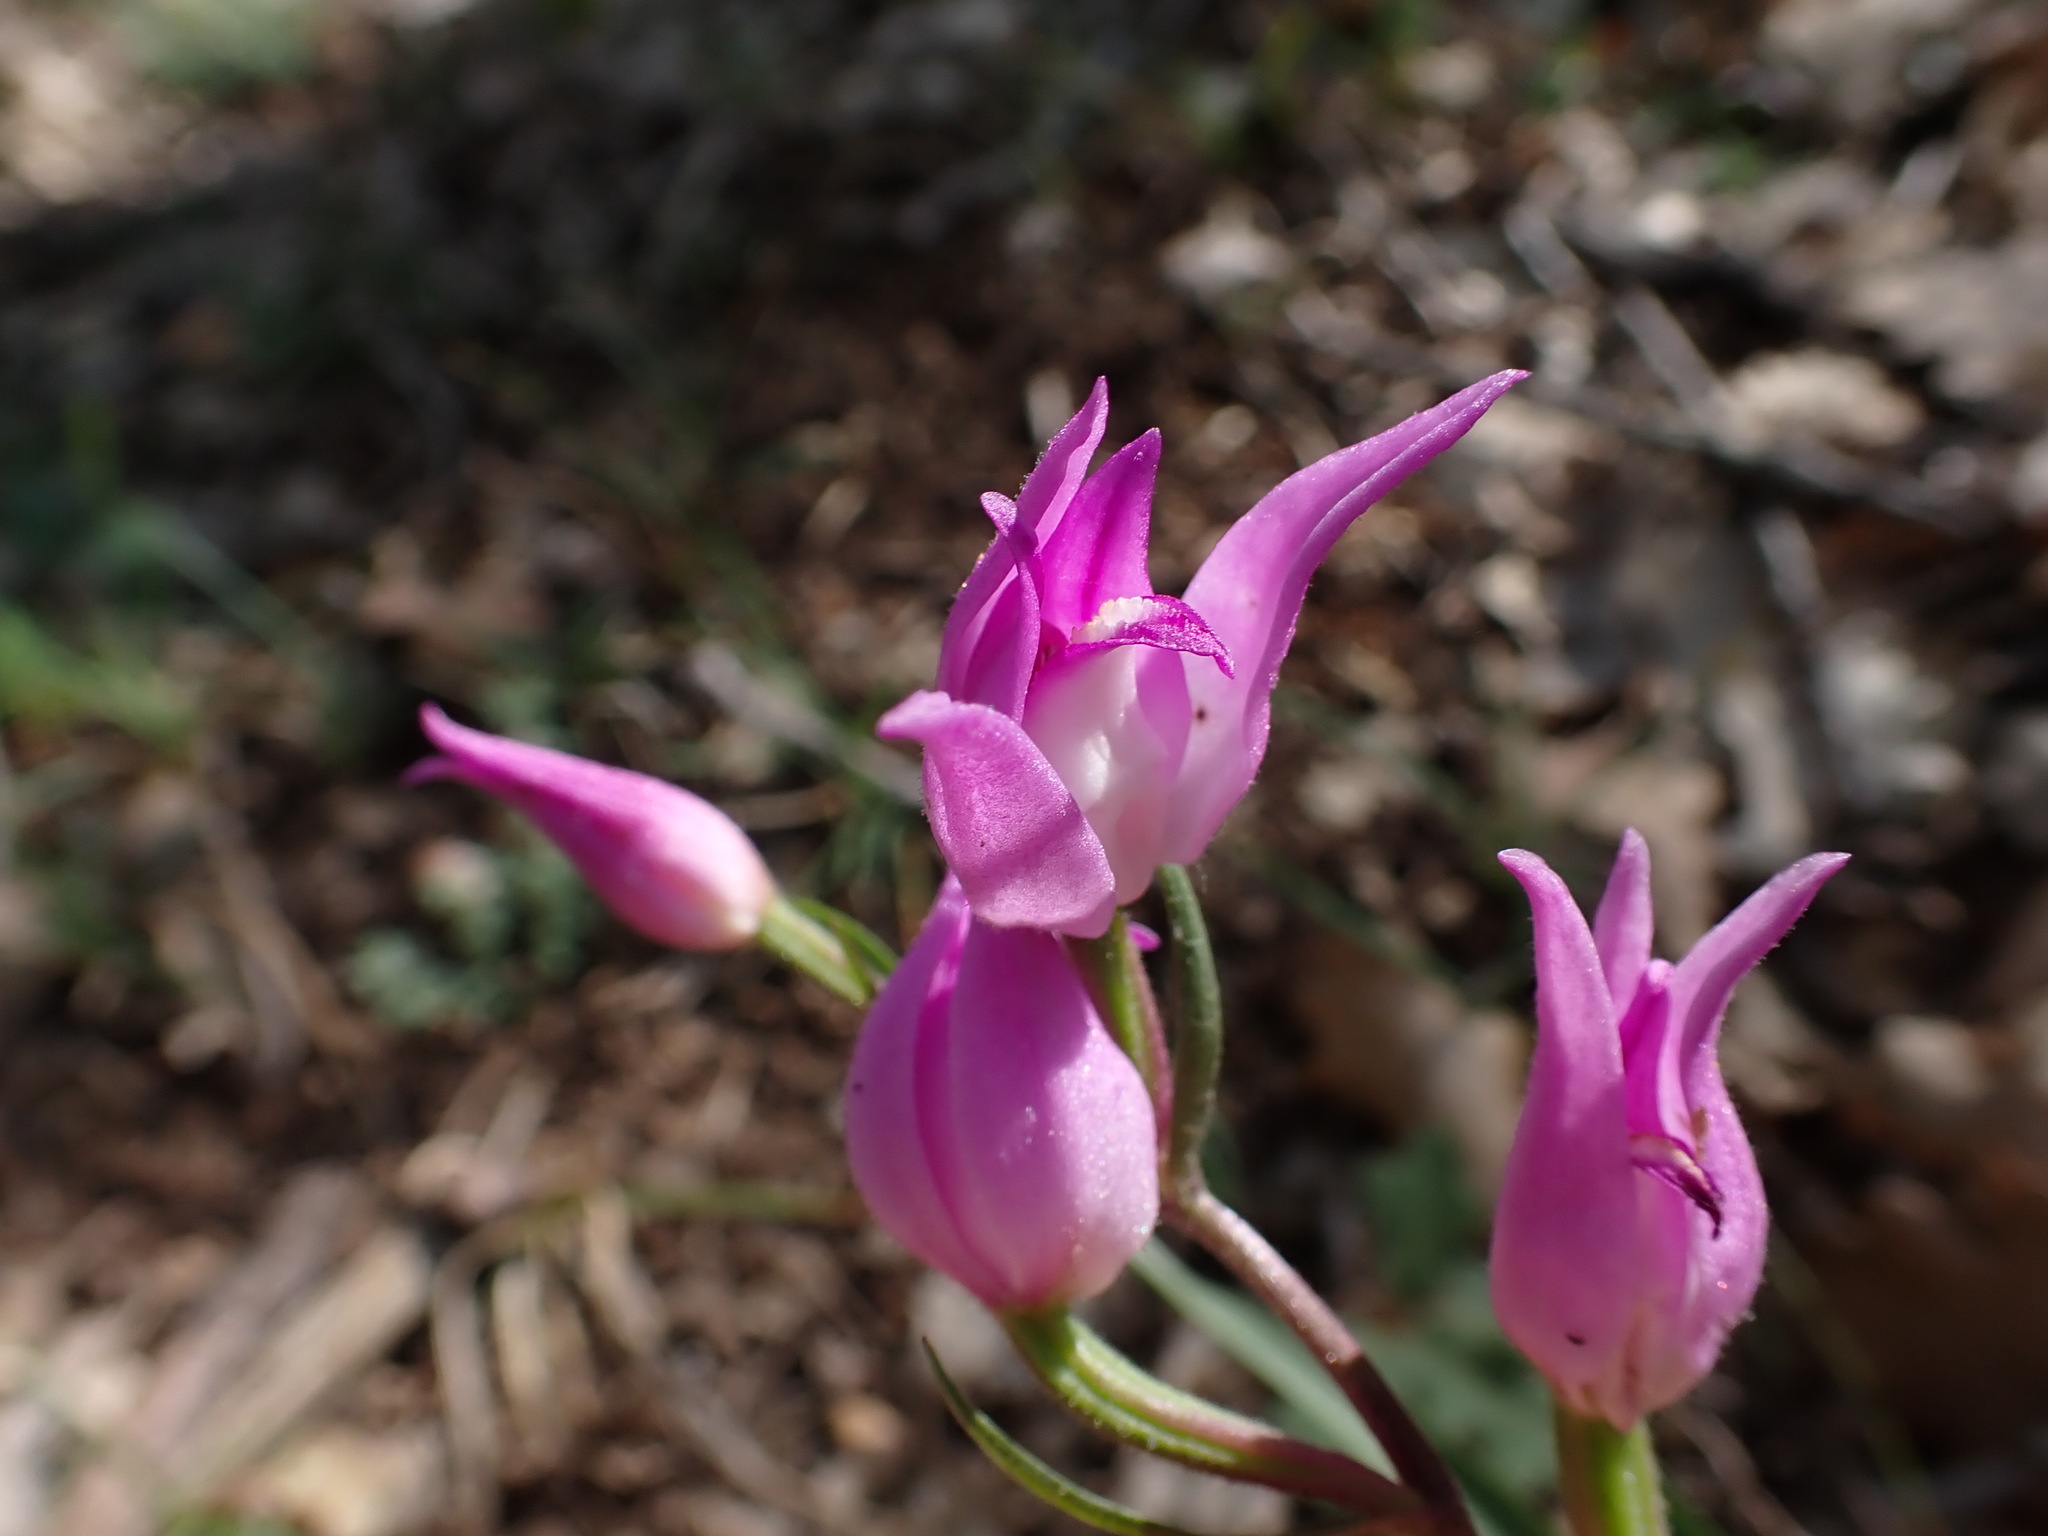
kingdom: Plantae
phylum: Tracheophyta
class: Liliopsida
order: Asparagales
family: Orchidaceae
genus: Cephalanthera
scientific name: Cephalanthera rubra
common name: Red helleborine
